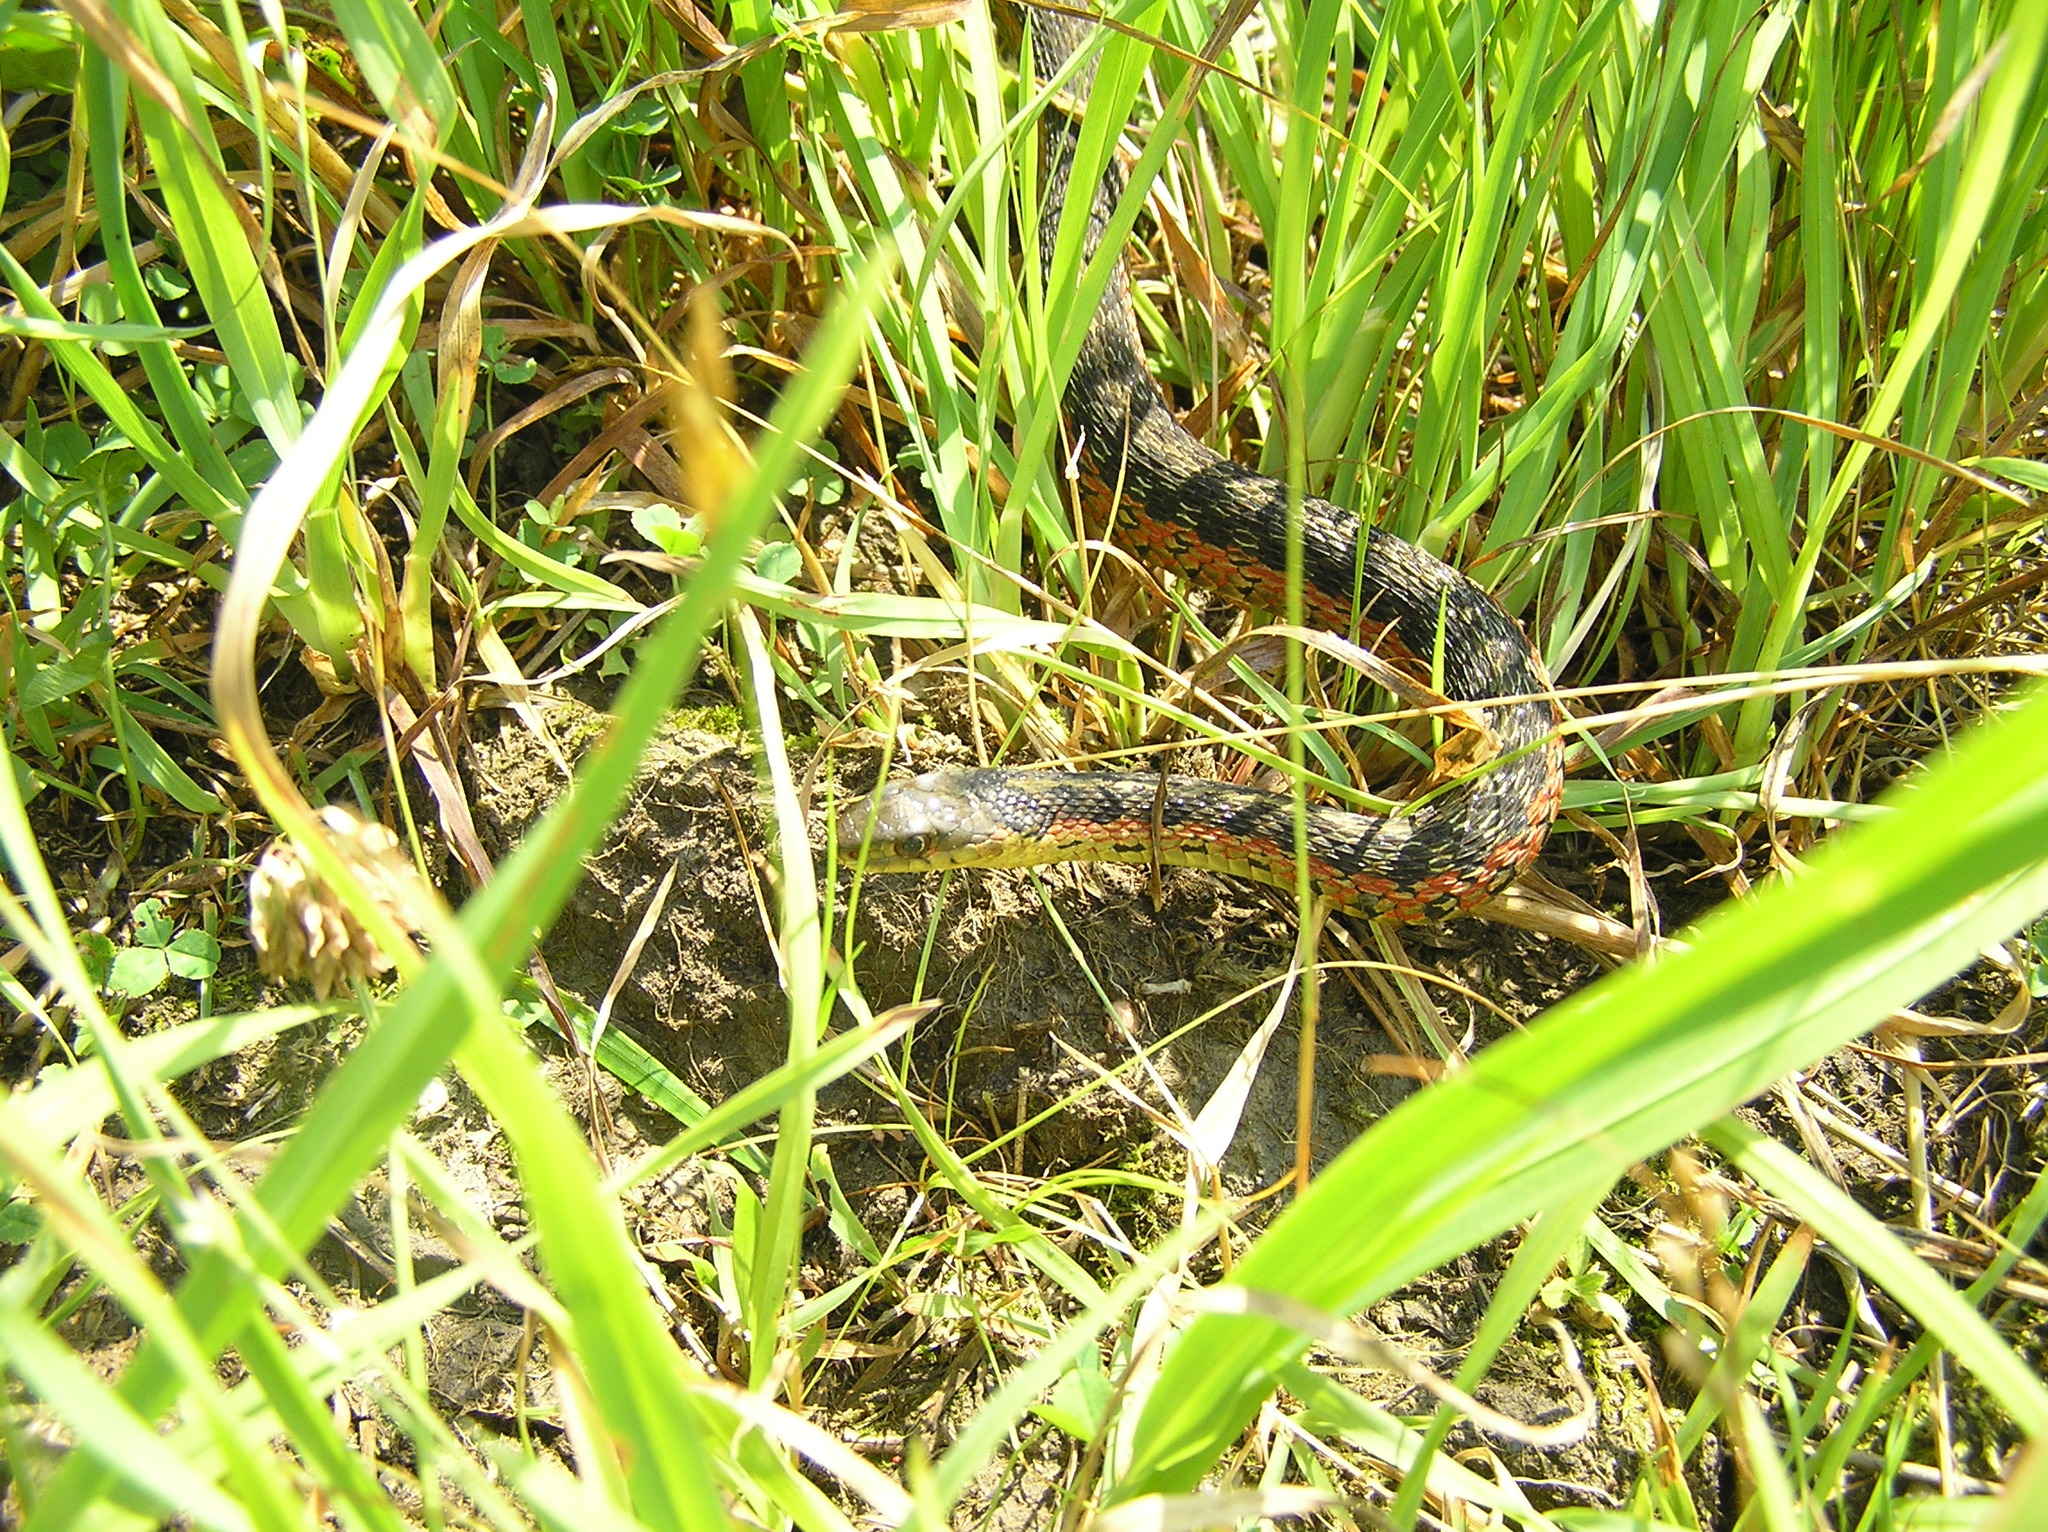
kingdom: Animalia
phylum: Chordata
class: Squamata
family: Colubridae
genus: Thamnophis
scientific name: Thamnophis sirtalis
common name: Common garter snake
